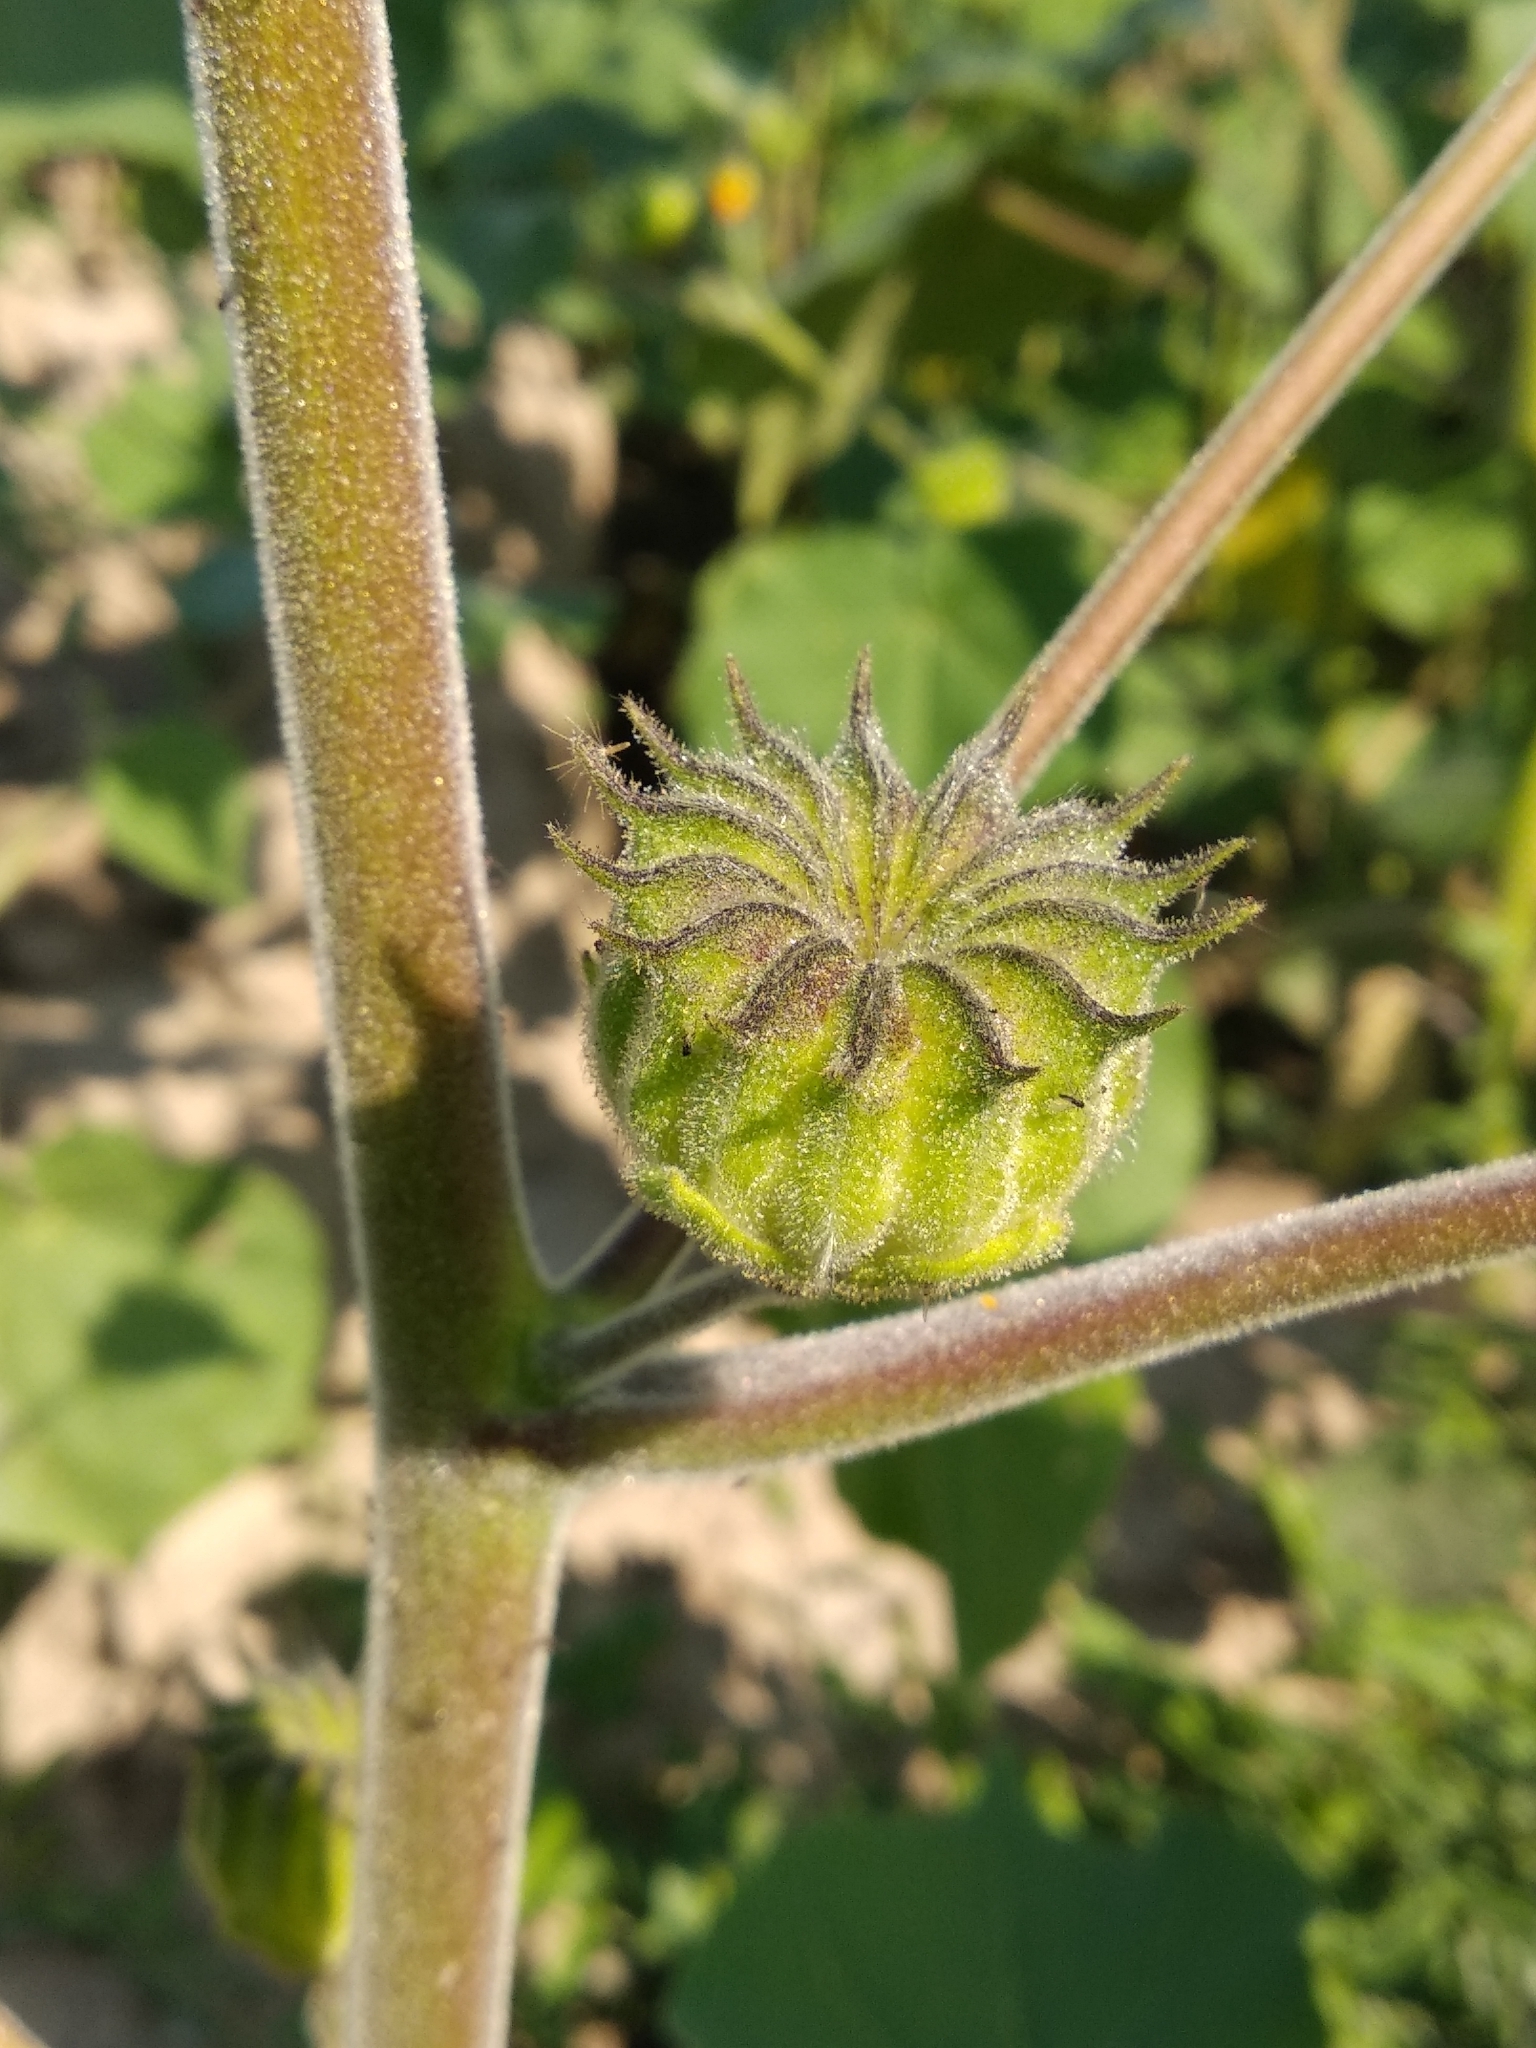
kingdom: Plantae
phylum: Tracheophyta
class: Magnoliopsida
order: Malvales
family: Malvaceae
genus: Abutilon
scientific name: Abutilon theophrasti
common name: Velvetleaf
